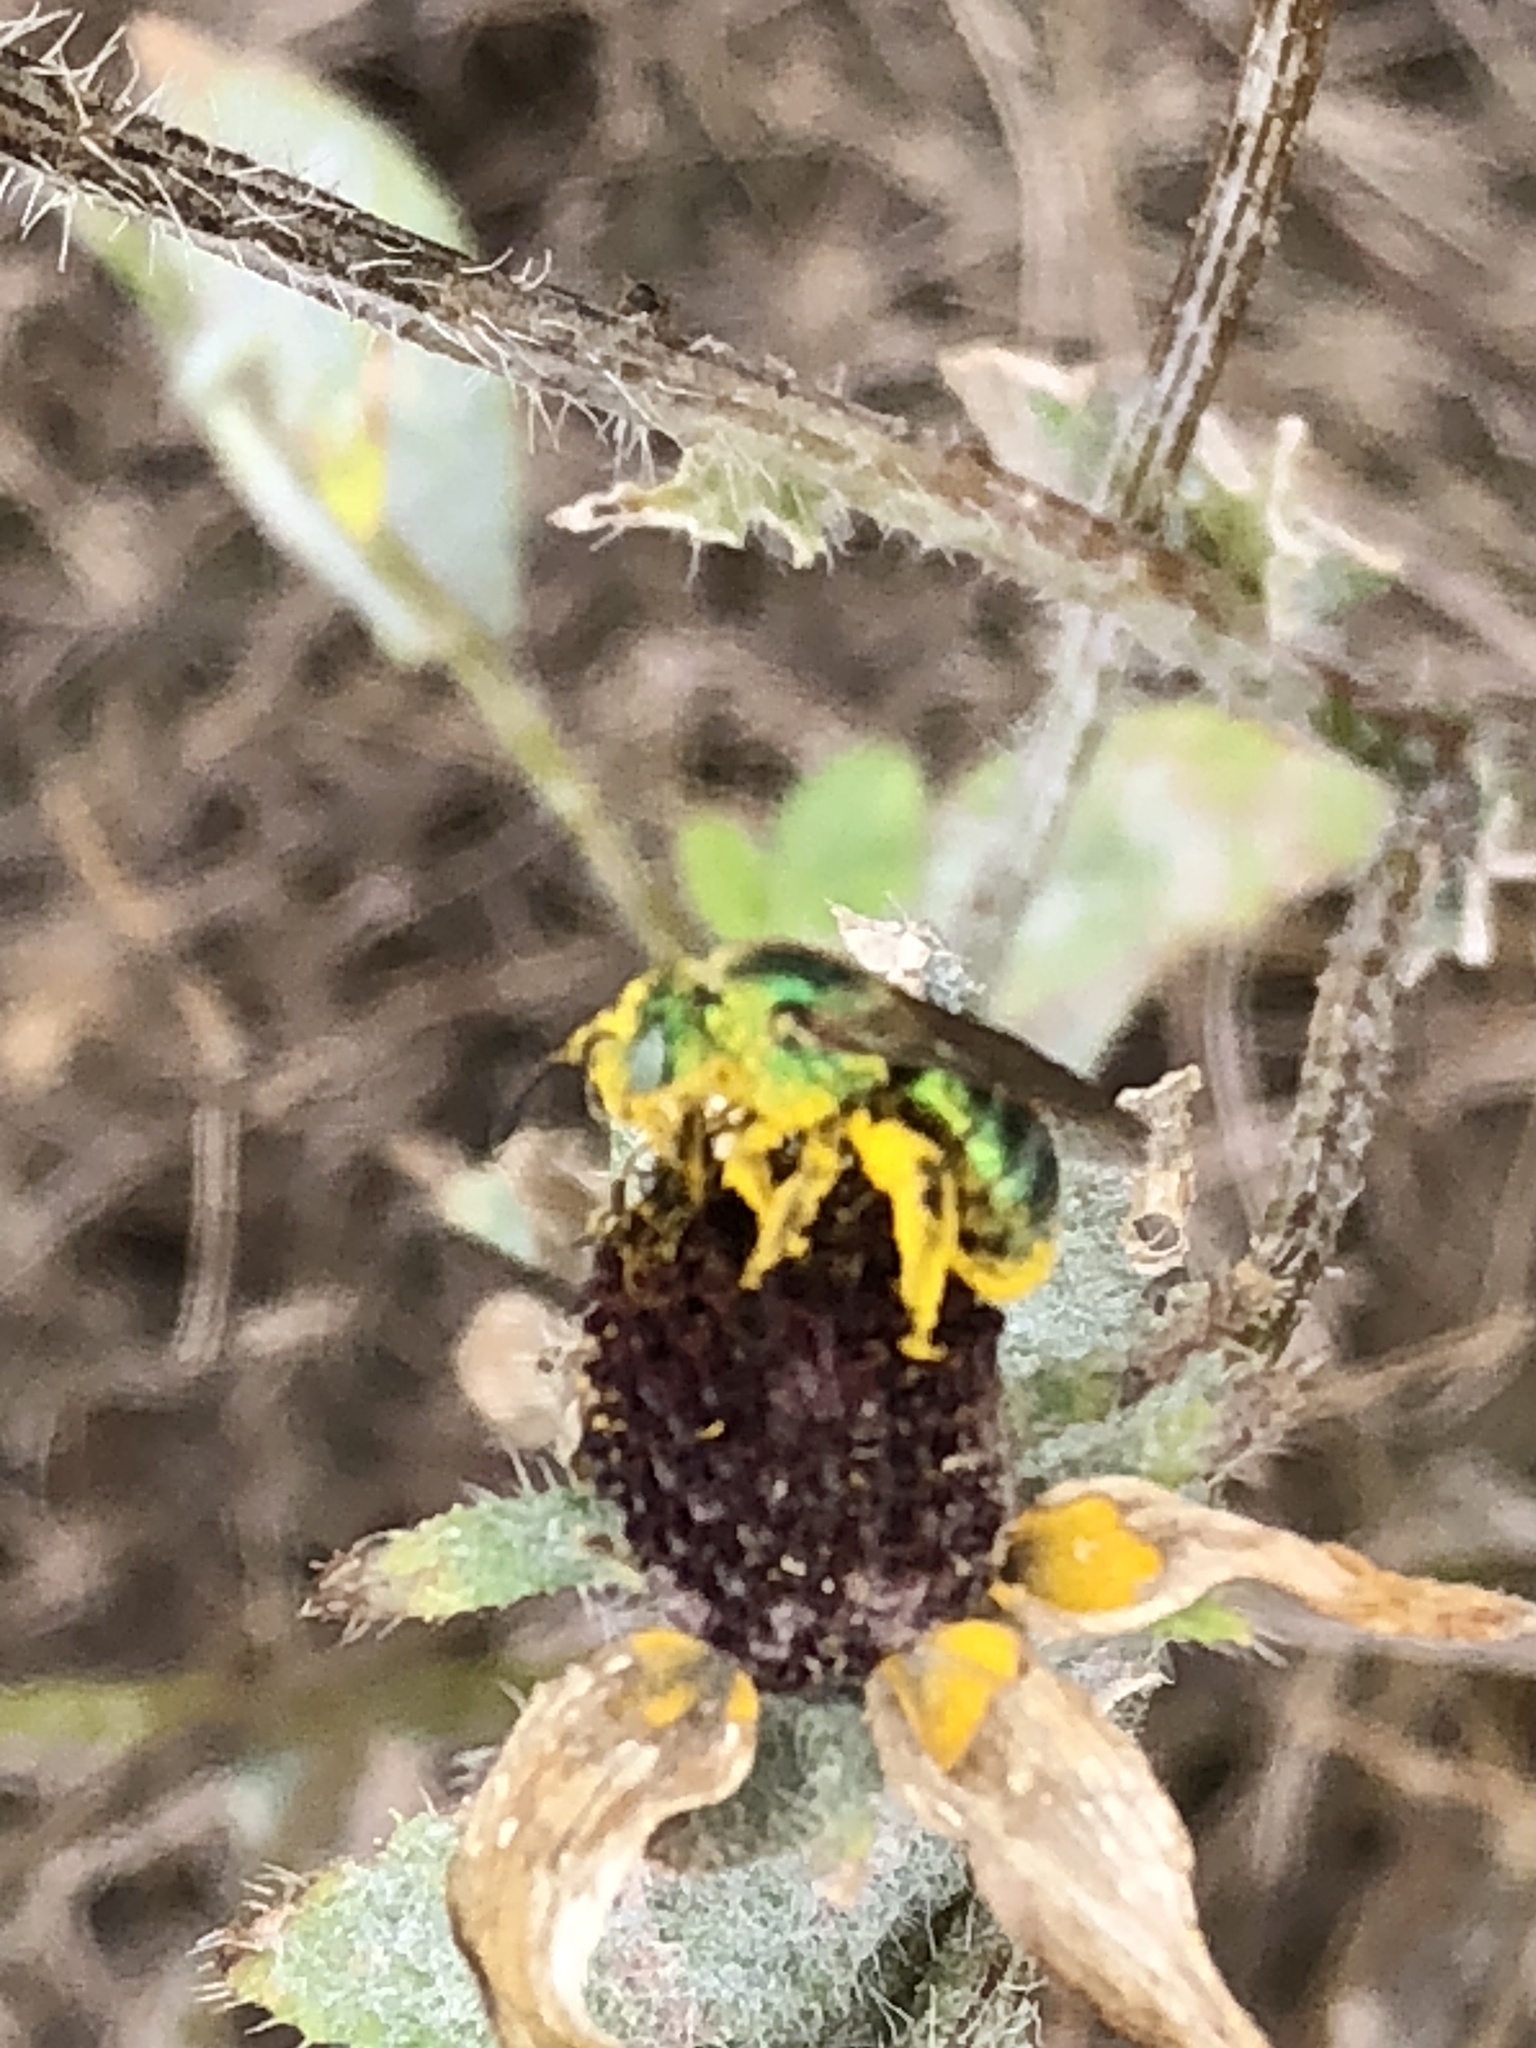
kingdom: Animalia
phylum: Arthropoda
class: Insecta
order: Hymenoptera
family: Halictidae
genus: Agapostemon
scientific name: Agapostemon sericeus
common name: Silky striped sweat bee
